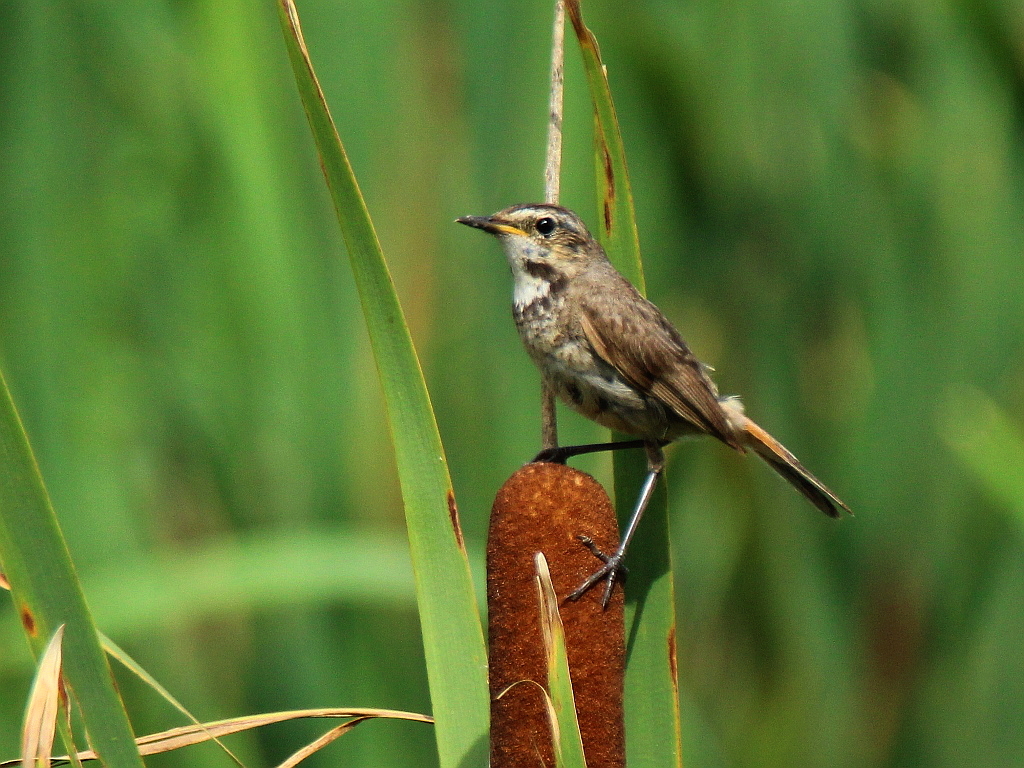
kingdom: Animalia
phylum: Chordata
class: Aves
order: Passeriformes
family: Muscicapidae
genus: Luscinia
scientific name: Luscinia svecica
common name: Bluethroat
